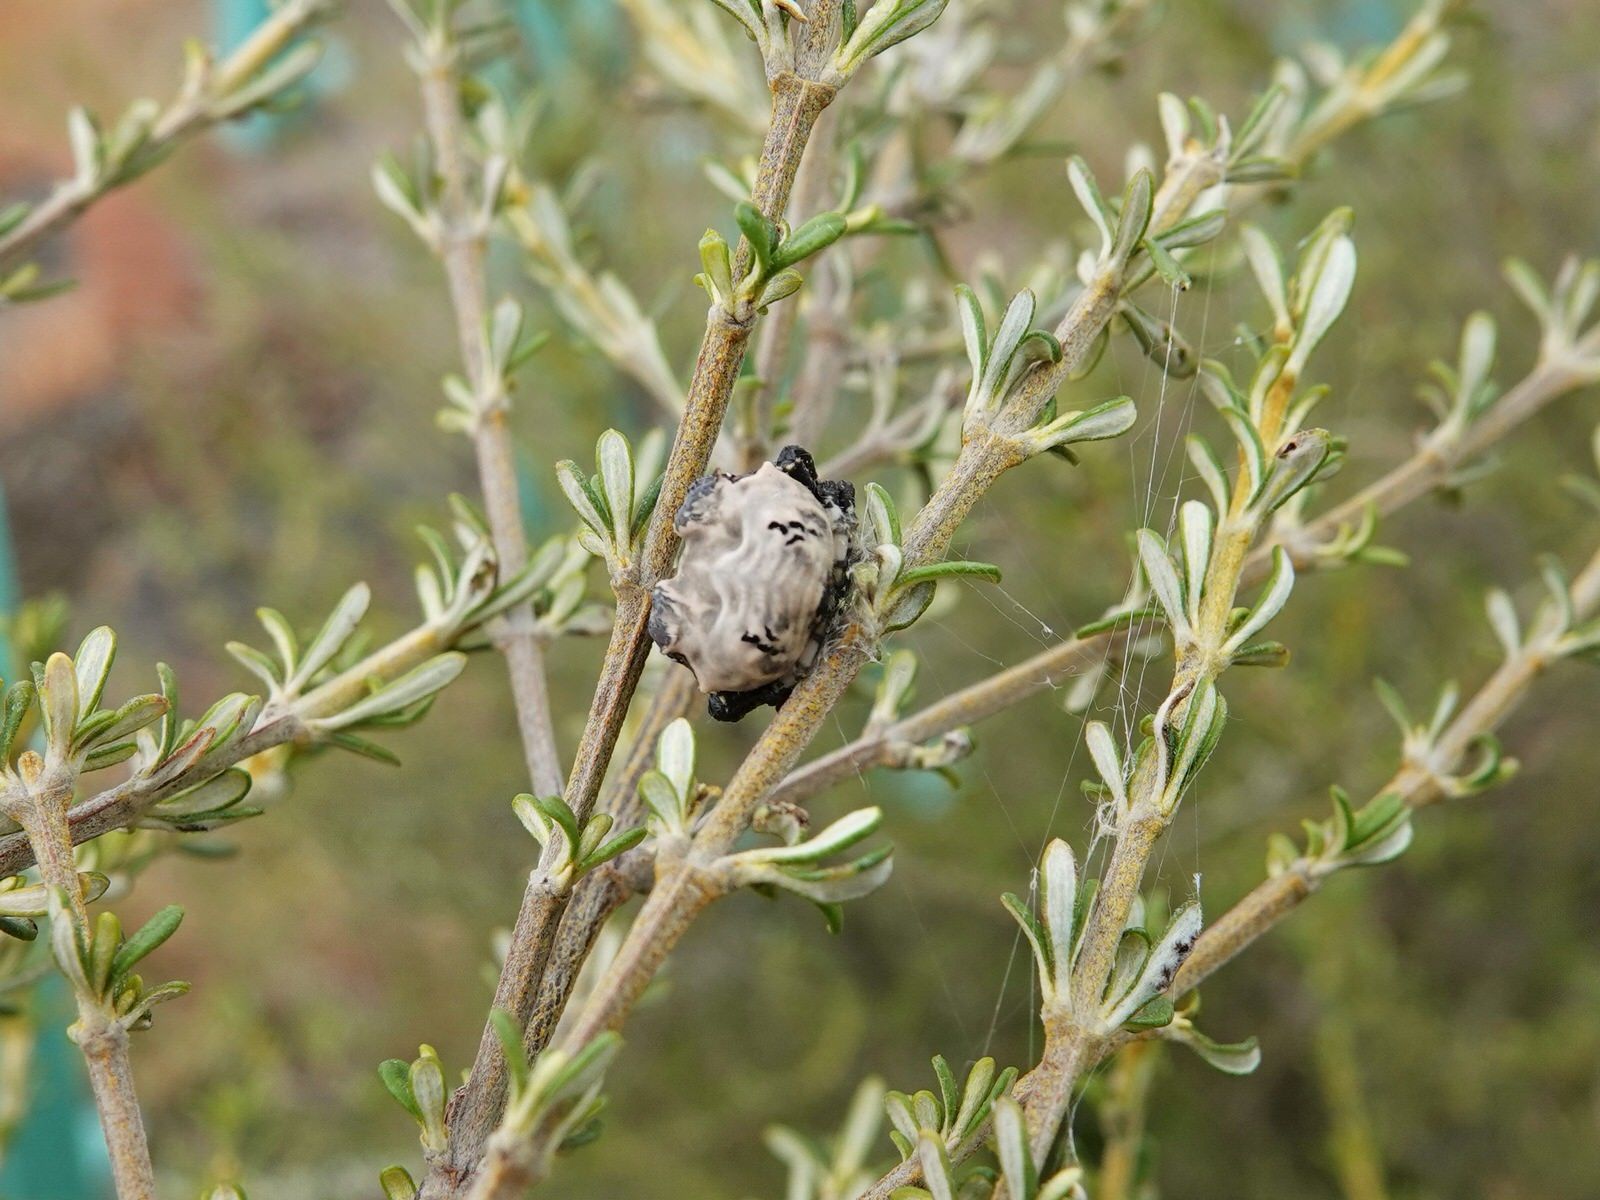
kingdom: Animalia
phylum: Arthropoda
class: Arachnida
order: Araneae
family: Araneidae
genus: Celaenia
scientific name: Celaenia excavata
